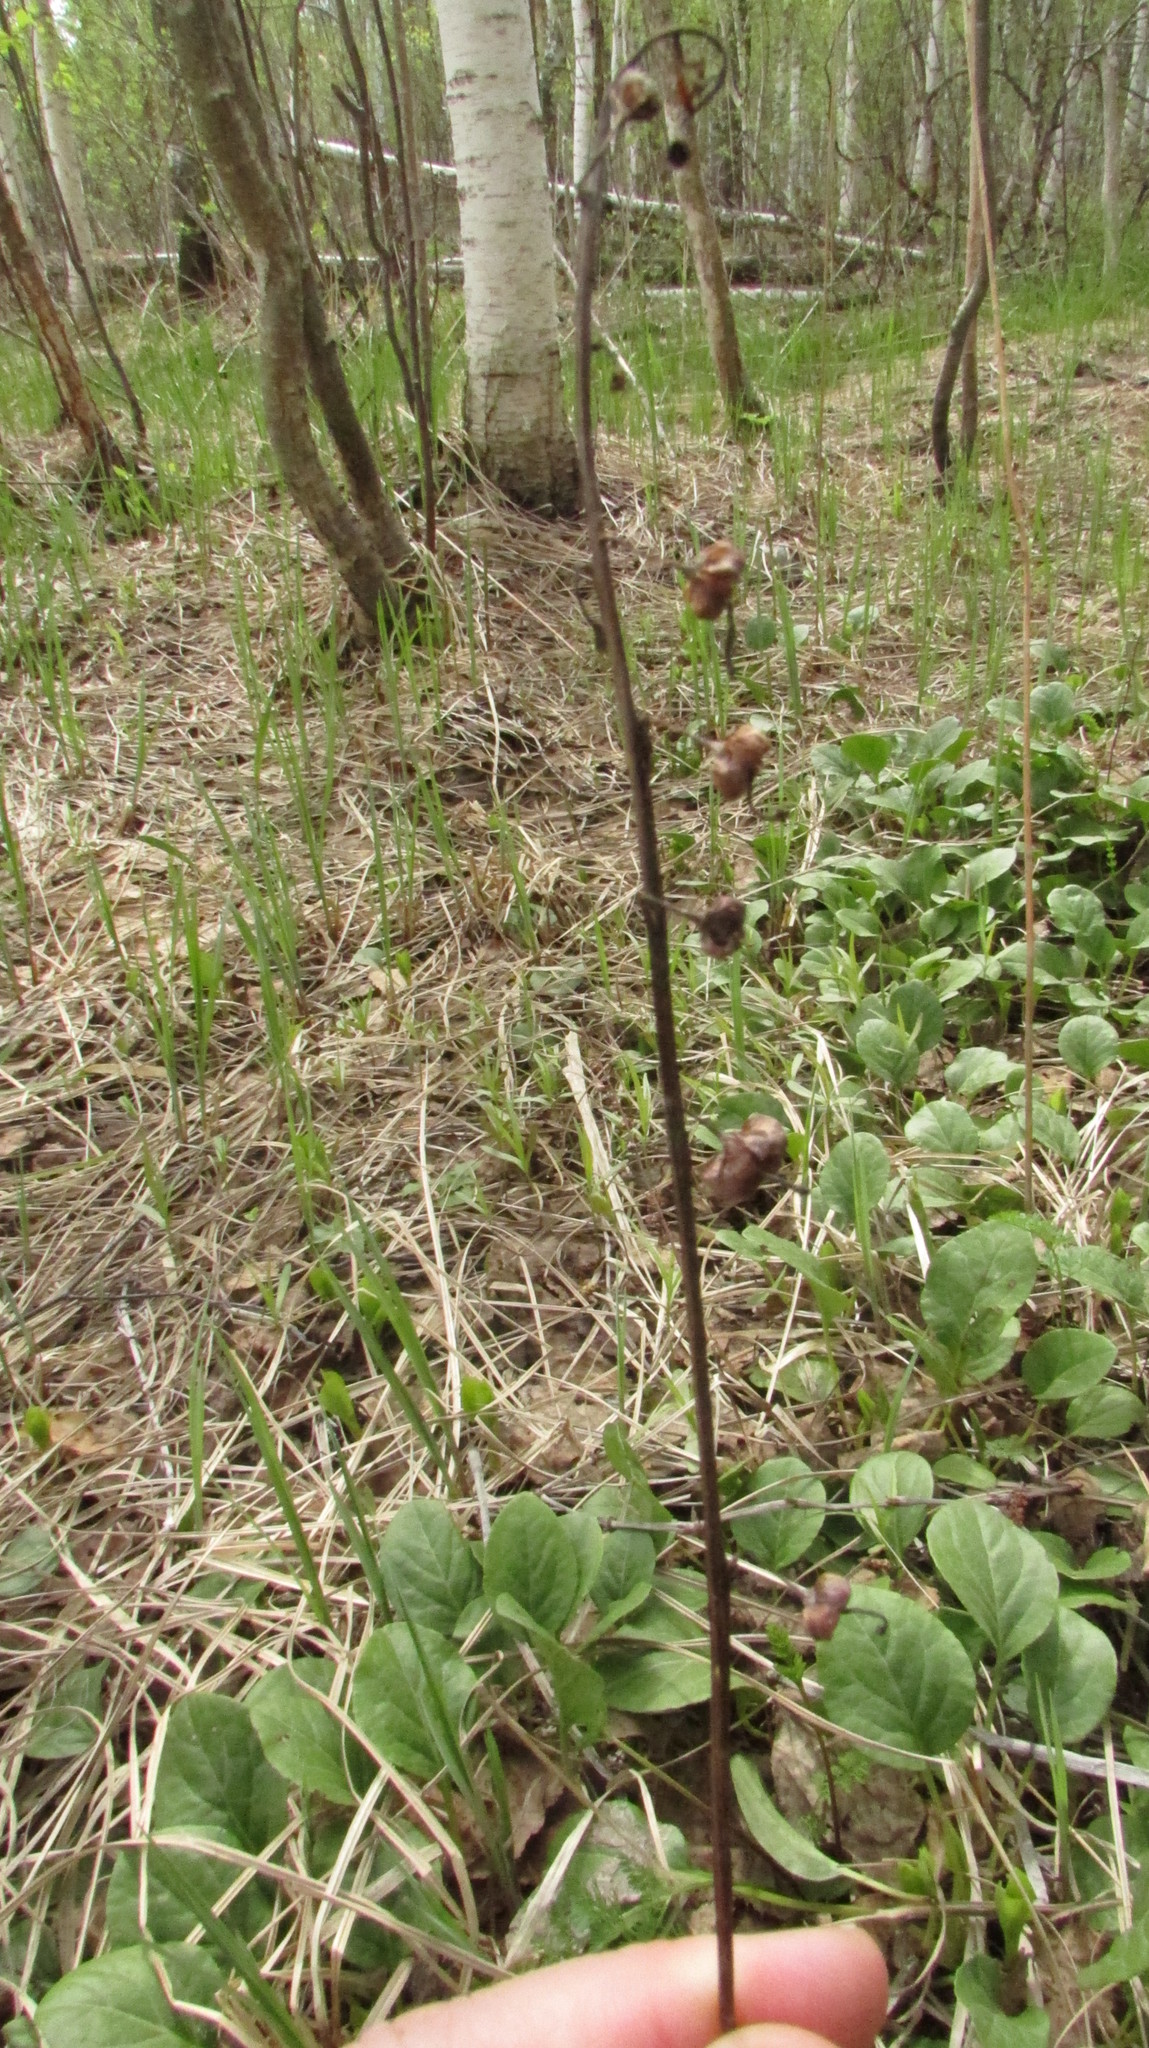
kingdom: Plantae
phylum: Tracheophyta
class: Magnoliopsida
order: Ericales
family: Ericaceae
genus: Pyrola
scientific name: Pyrola rotundifolia
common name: Round-leaved wintergreen
